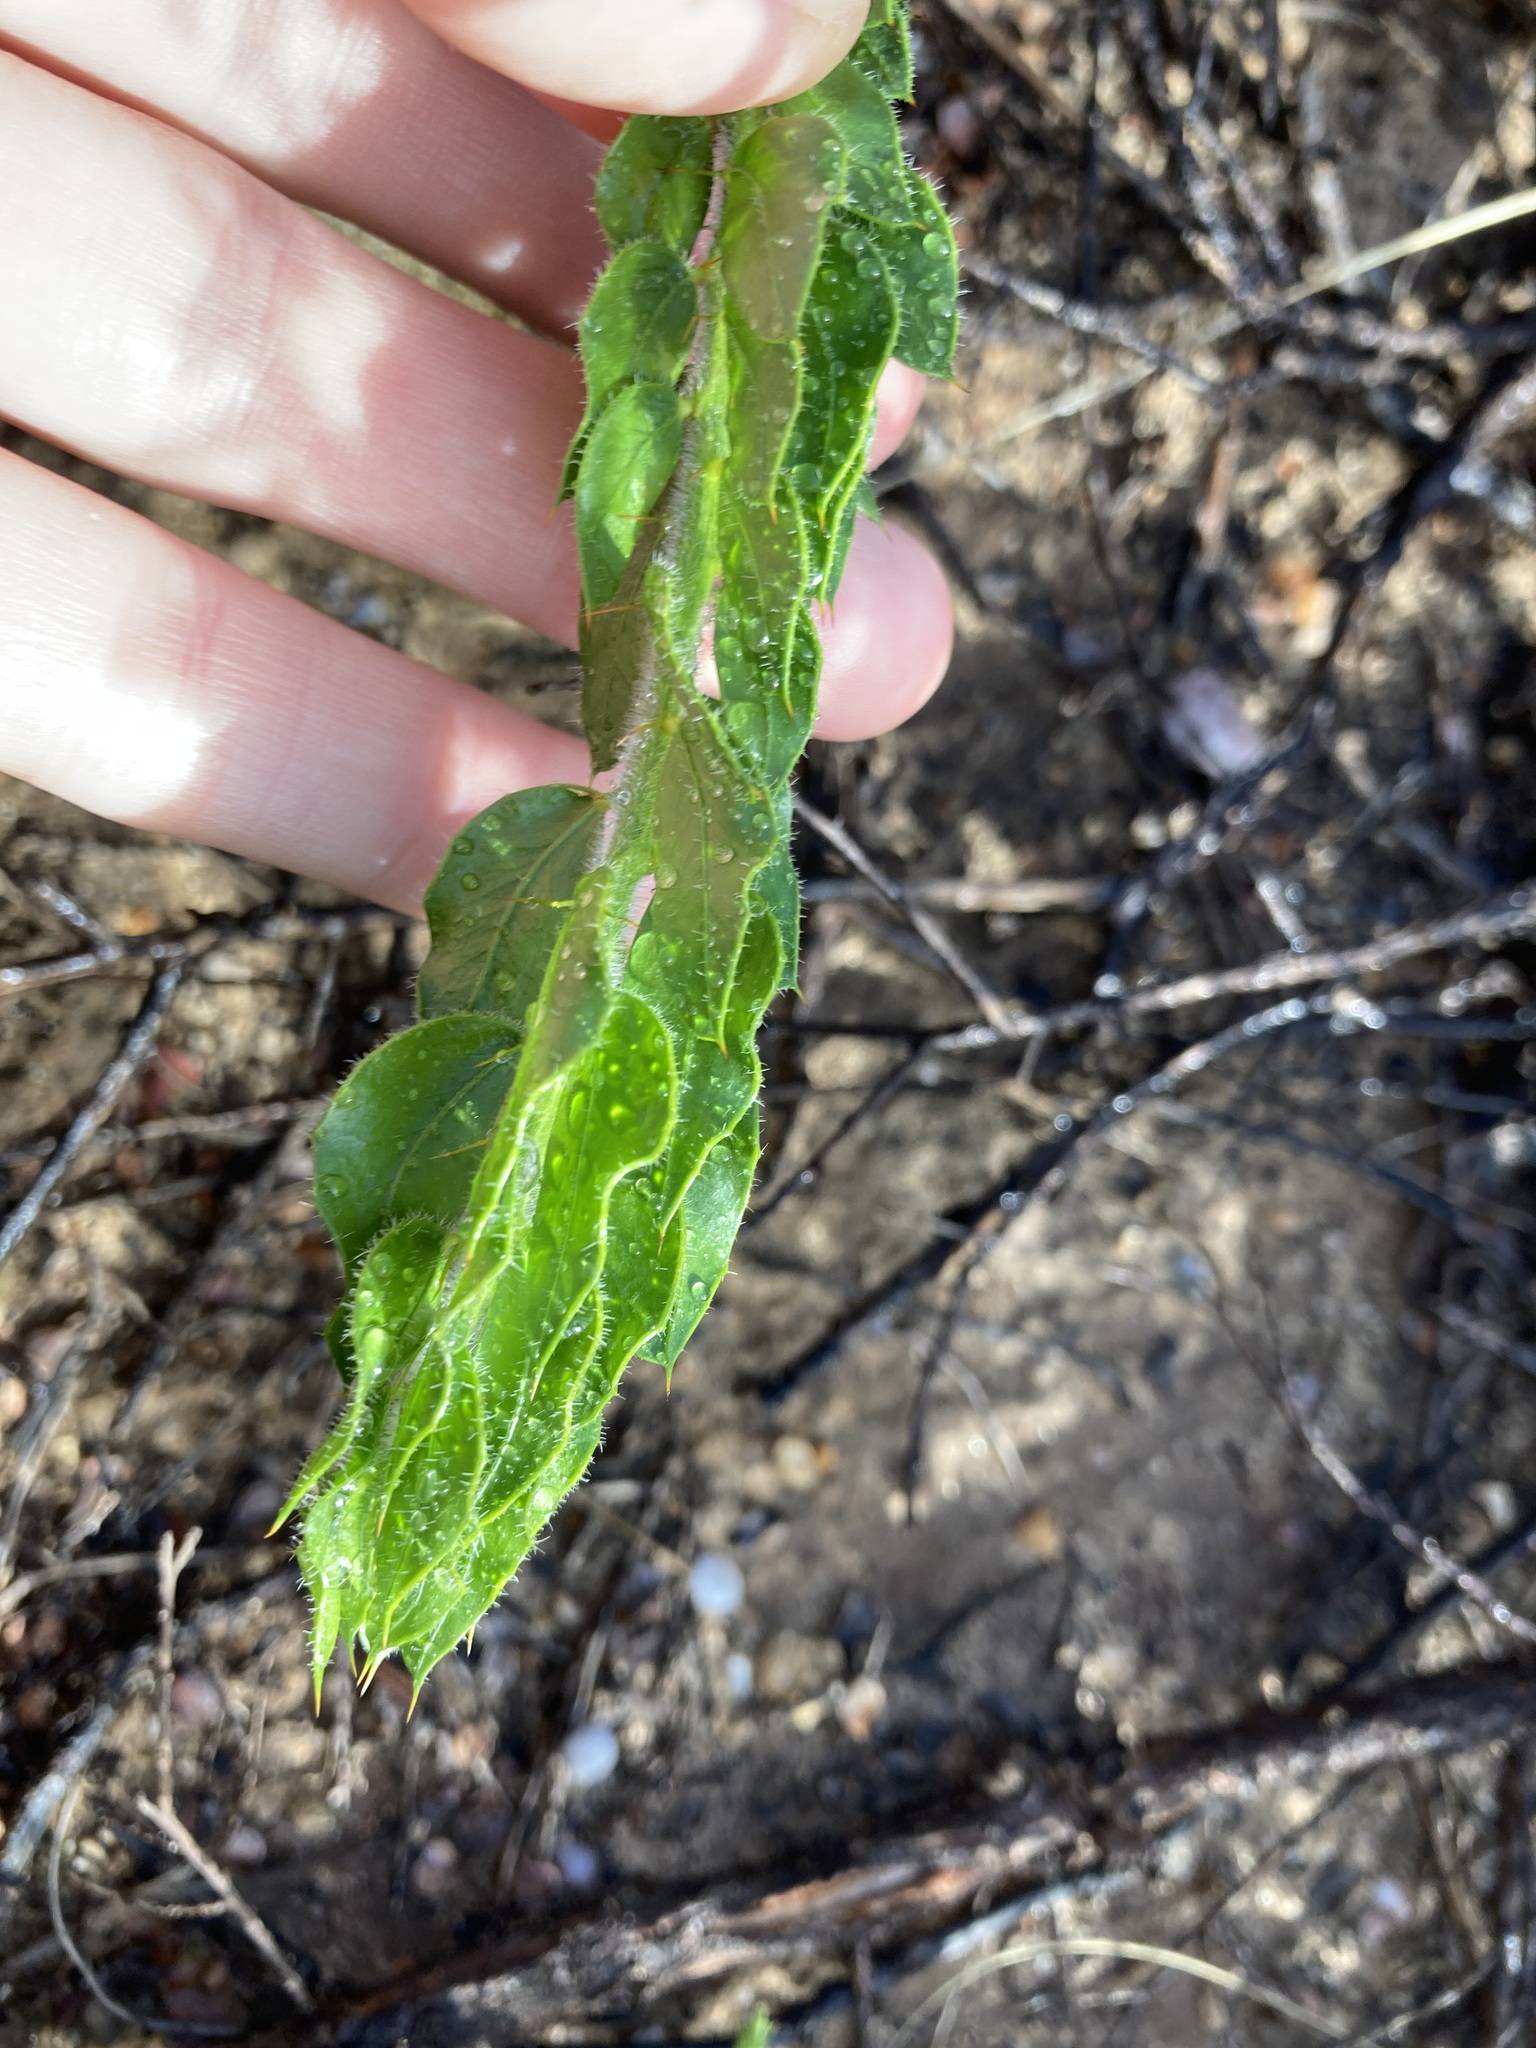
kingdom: Plantae
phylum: Tracheophyta
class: Magnoliopsida
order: Fabales
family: Fabaceae
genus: Acacia
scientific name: Acacia idiomorpha
